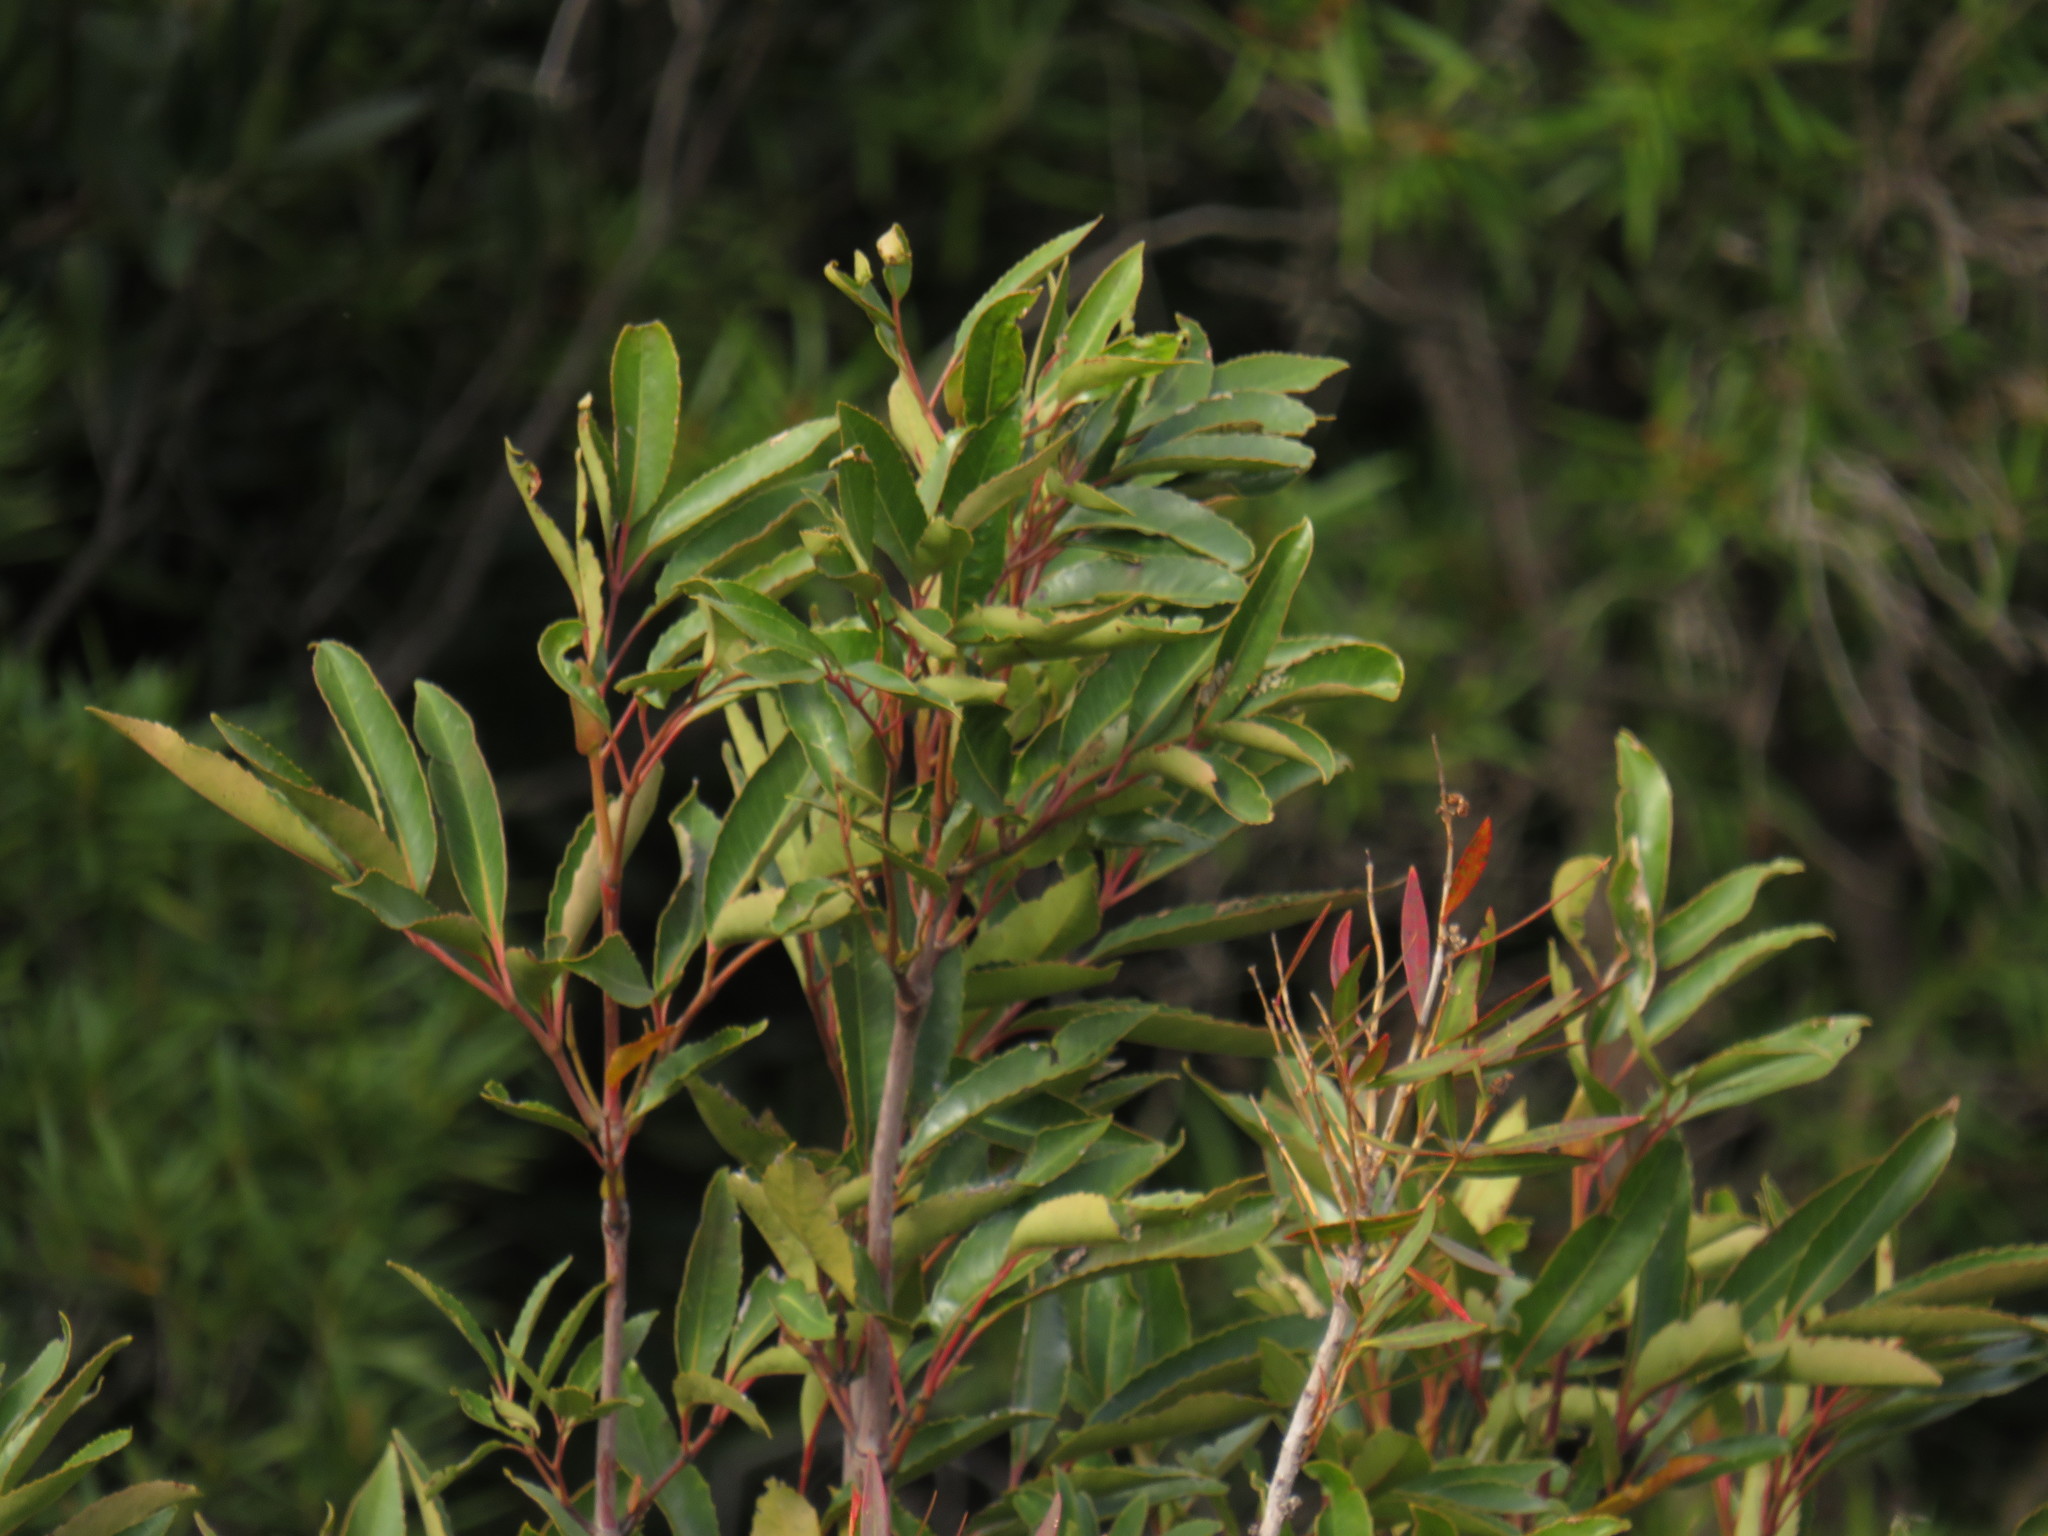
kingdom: Plantae
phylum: Tracheophyta
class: Magnoliopsida
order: Oxalidales
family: Cunoniaceae
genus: Cunonia
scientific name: Cunonia capensis
